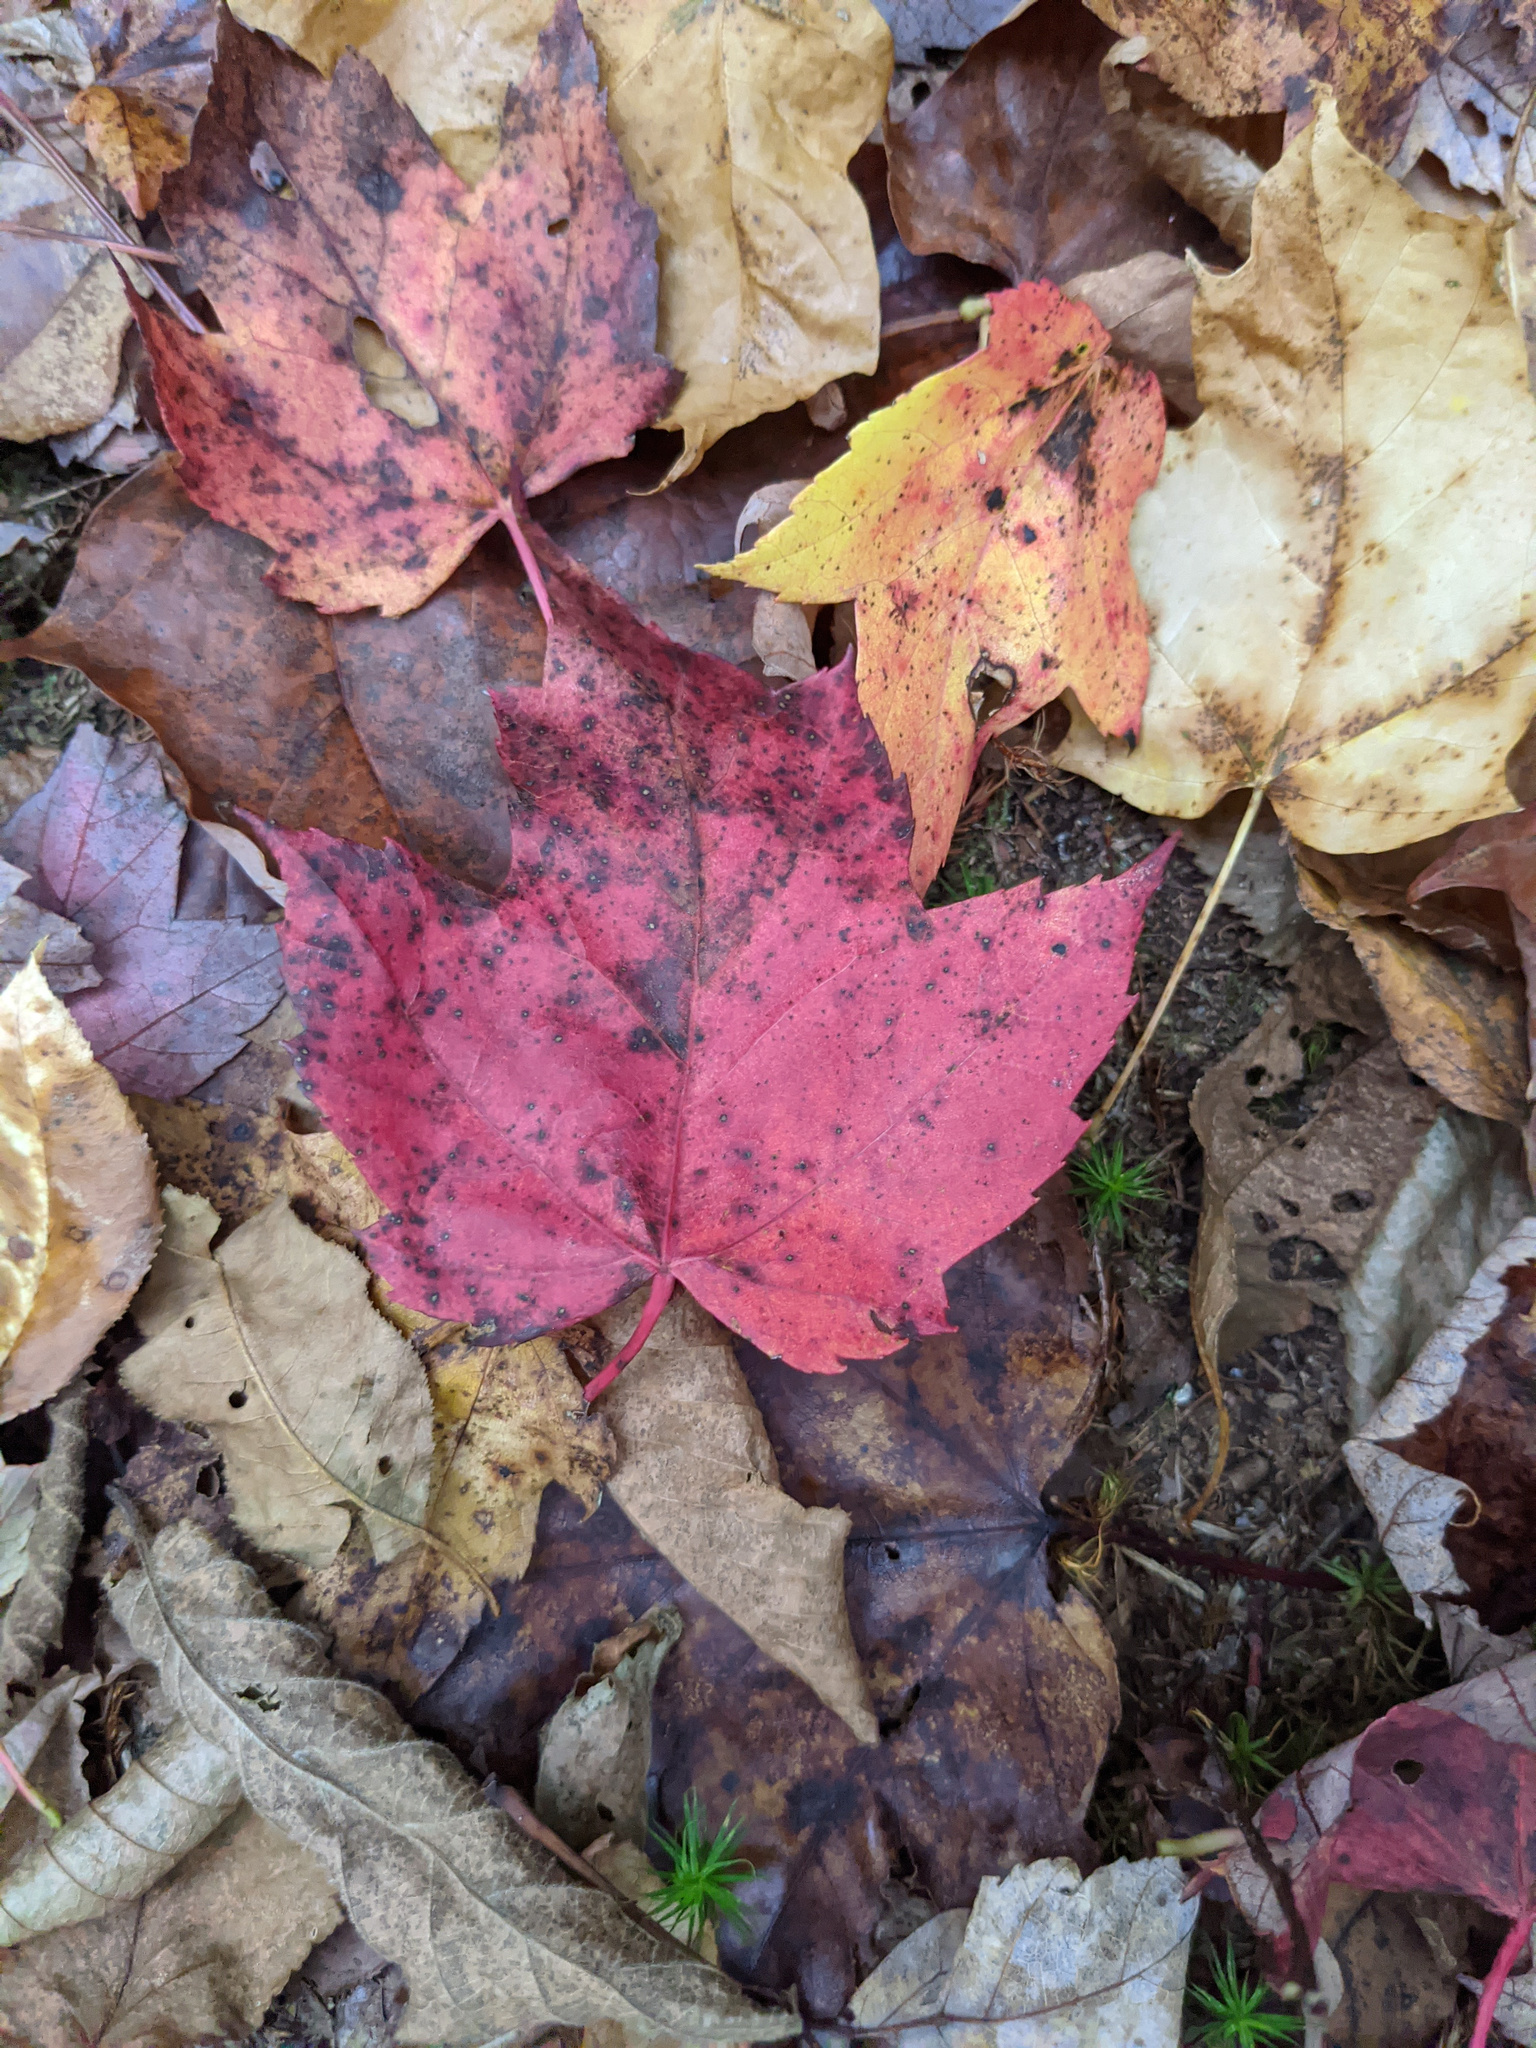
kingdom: Plantae
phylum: Tracheophyta
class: Magnoliopsida
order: Sapindales
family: Sapindaceae
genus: Acer
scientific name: Acer rubrum
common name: Red maple
